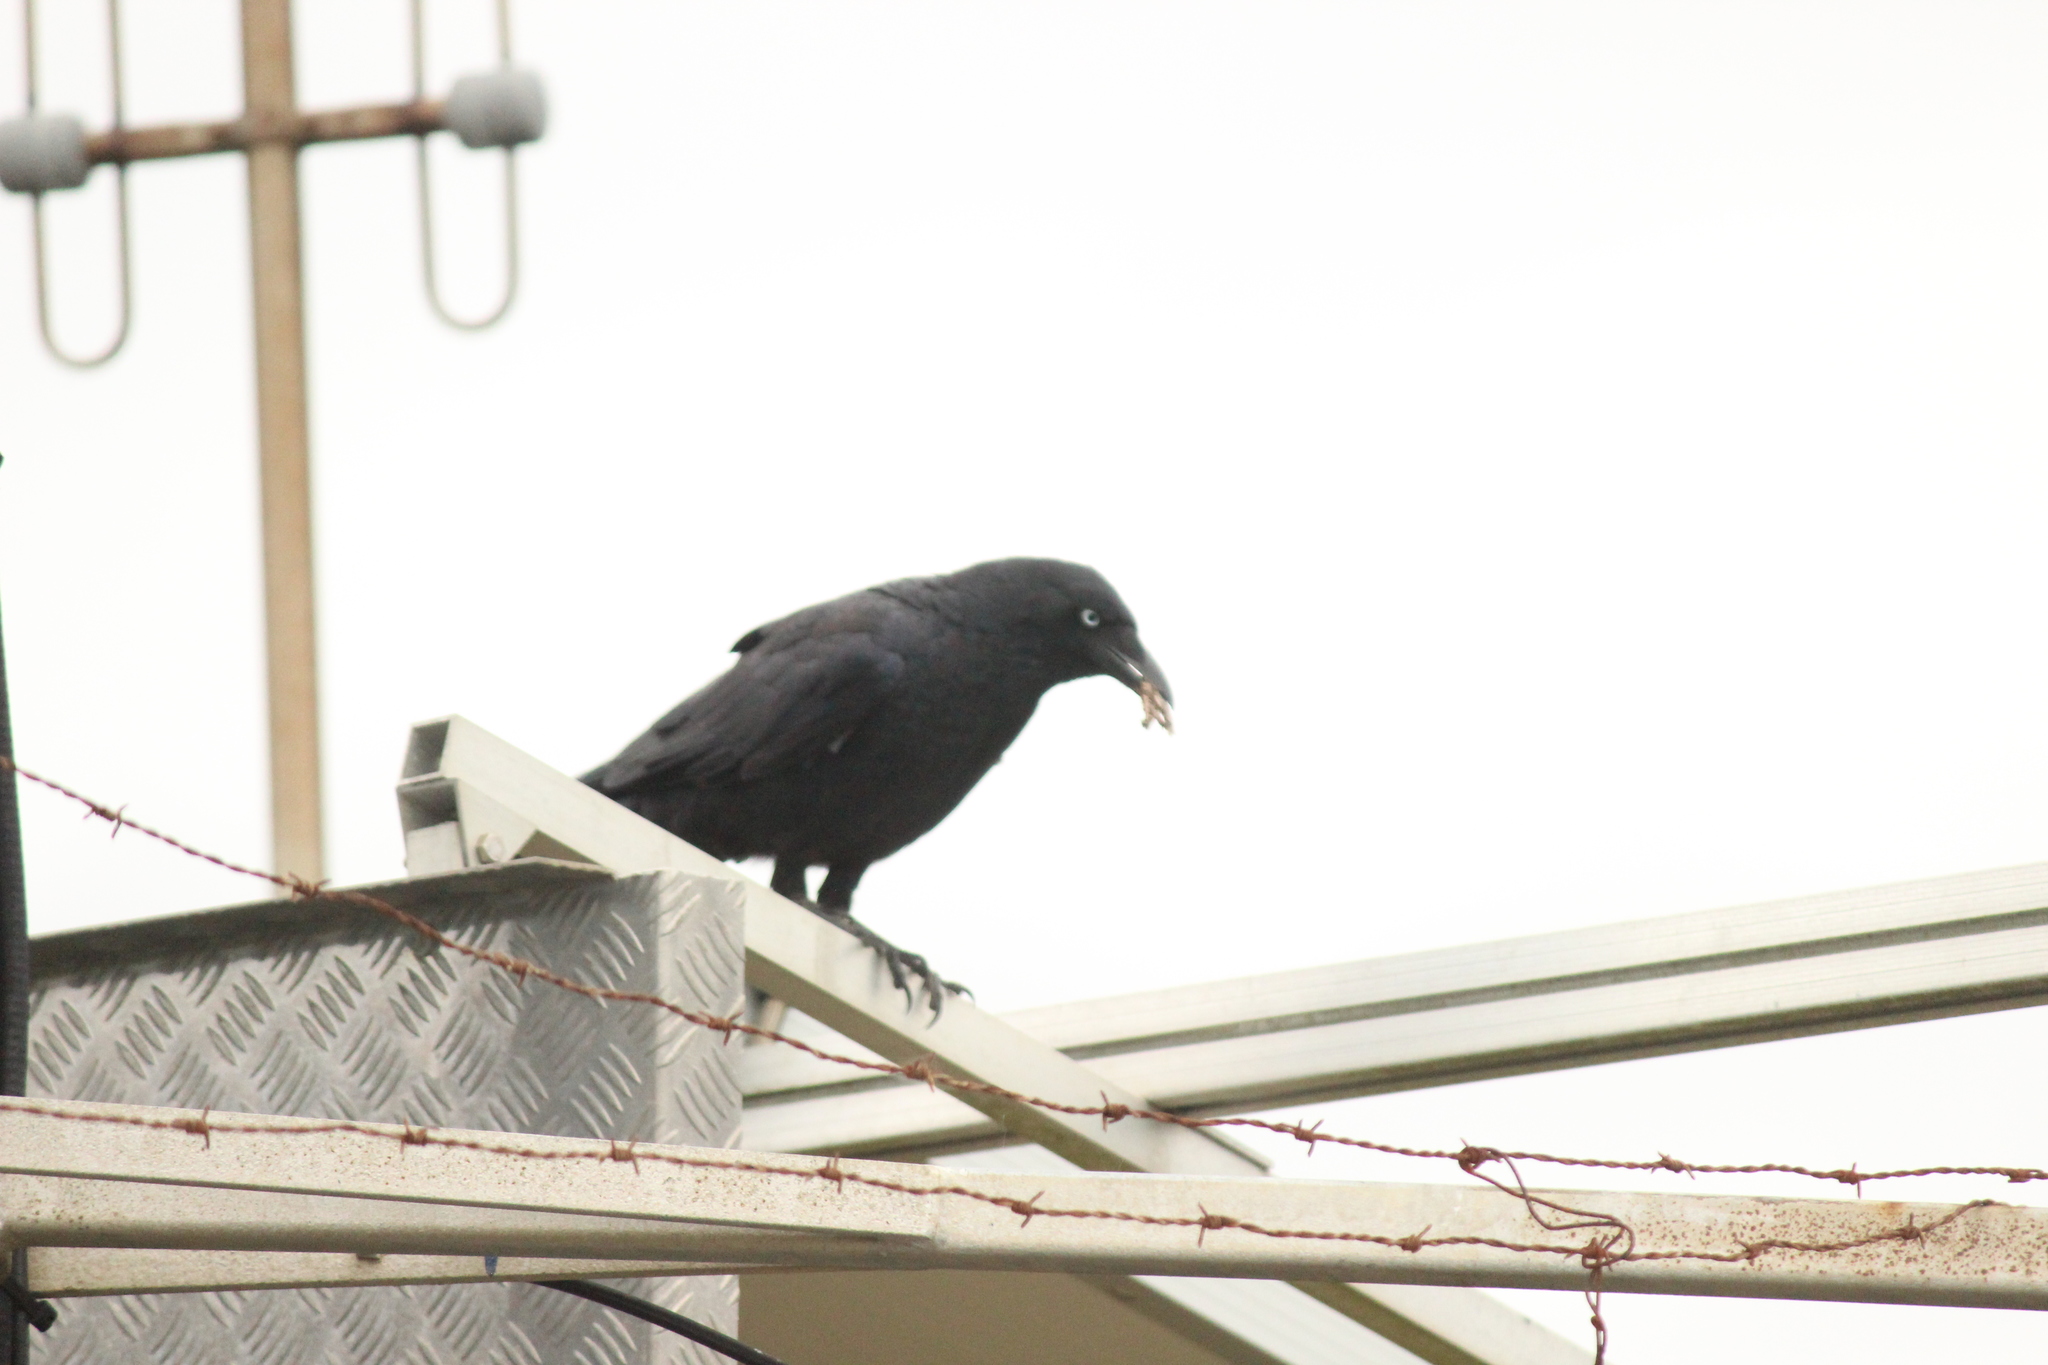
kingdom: Animalia
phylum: Chordata
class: Aves
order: Passeriformes
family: Corvidae
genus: Corvus
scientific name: Corvus orru
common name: Torresian crow
